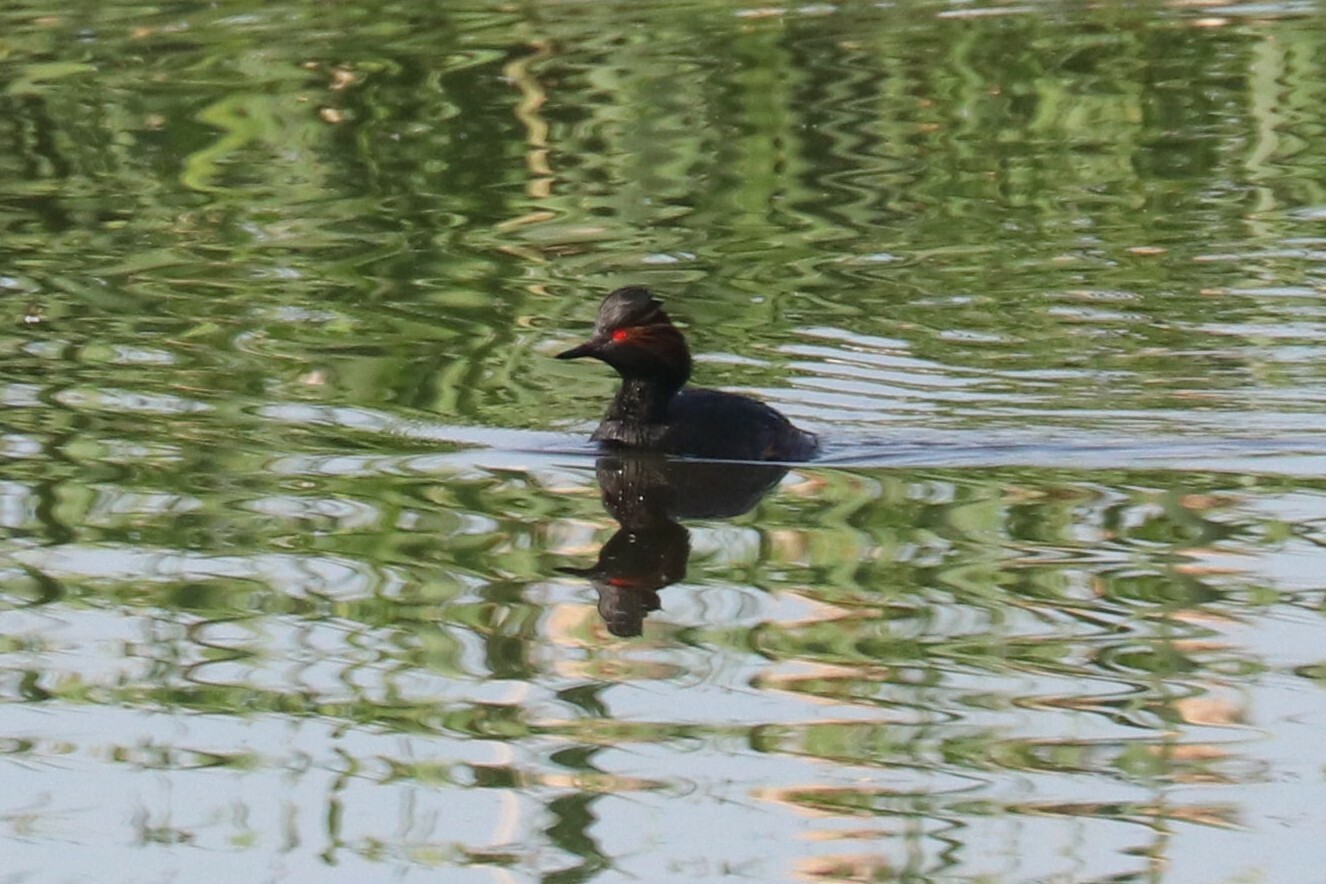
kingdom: Animalia
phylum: Chordata
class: Aves
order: Podicipediformes
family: Podicipedidae
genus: Podiceps
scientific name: Podiceps nigricollis
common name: Black-necked grebe
